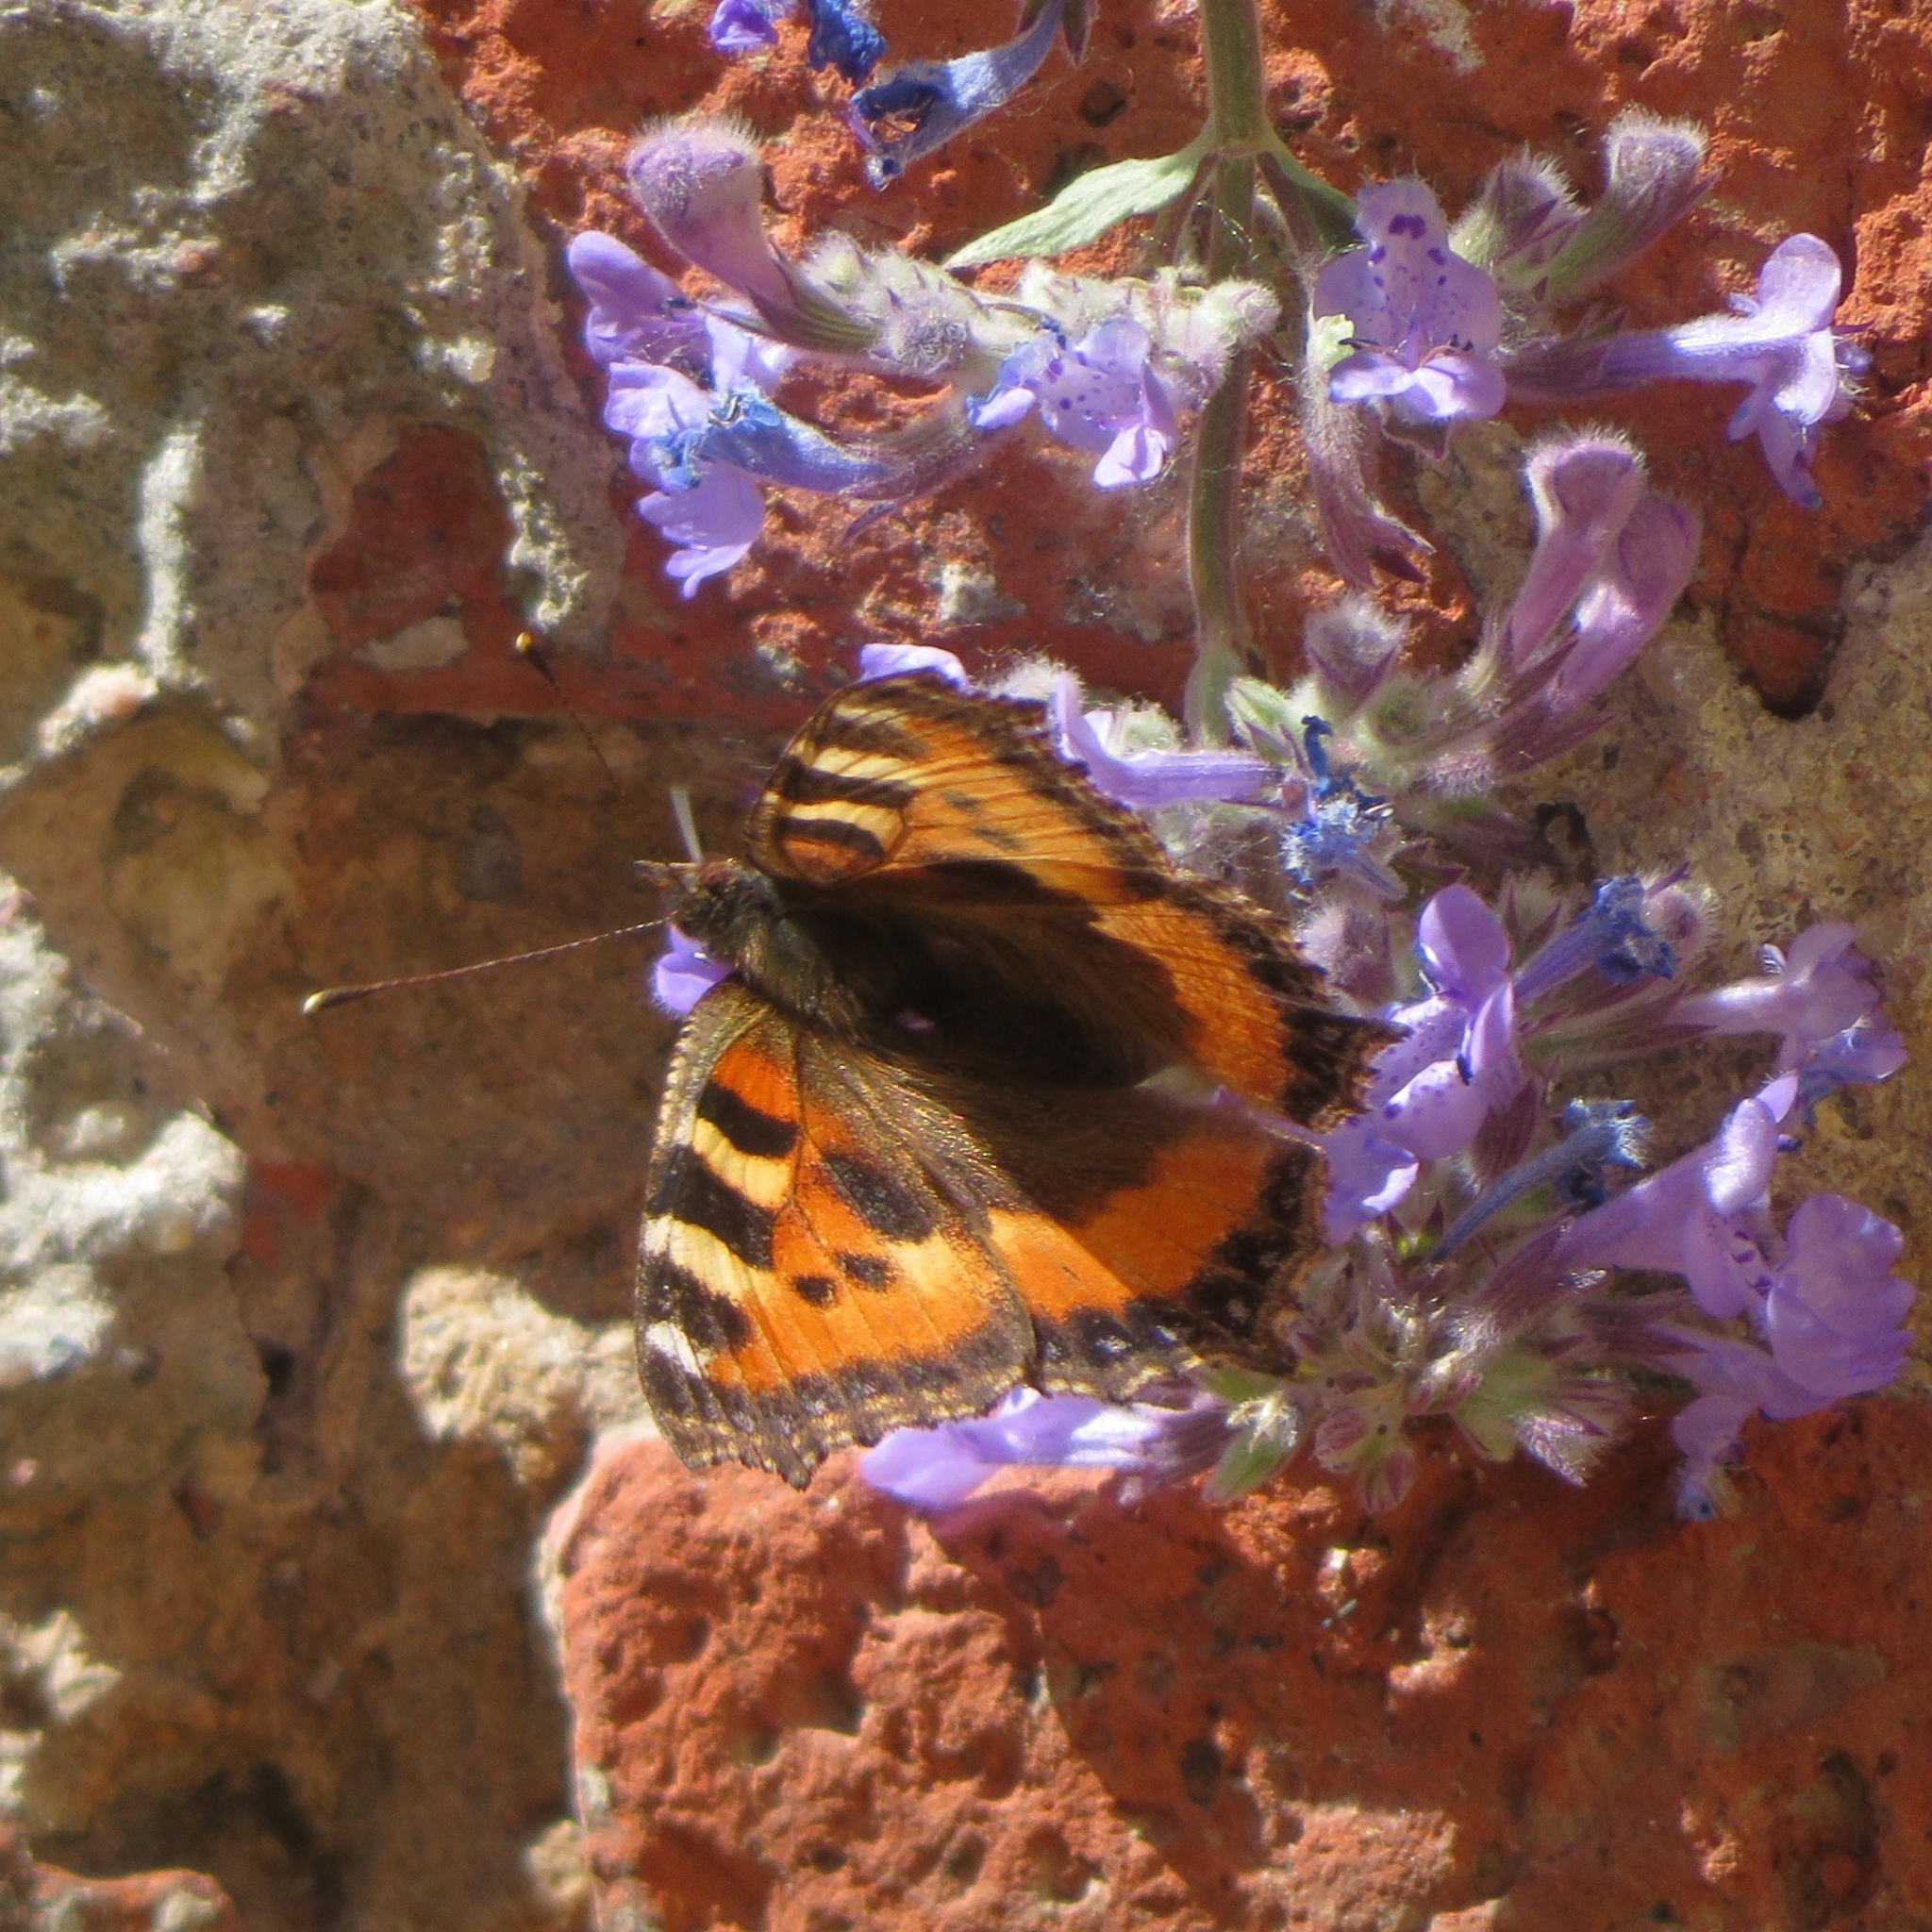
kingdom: Animalia
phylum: Arthropoda
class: Insecta
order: Lepidoptera
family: Nymphalidae
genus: Aglais
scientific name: Aglais urticae
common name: Small tortoiseshell
